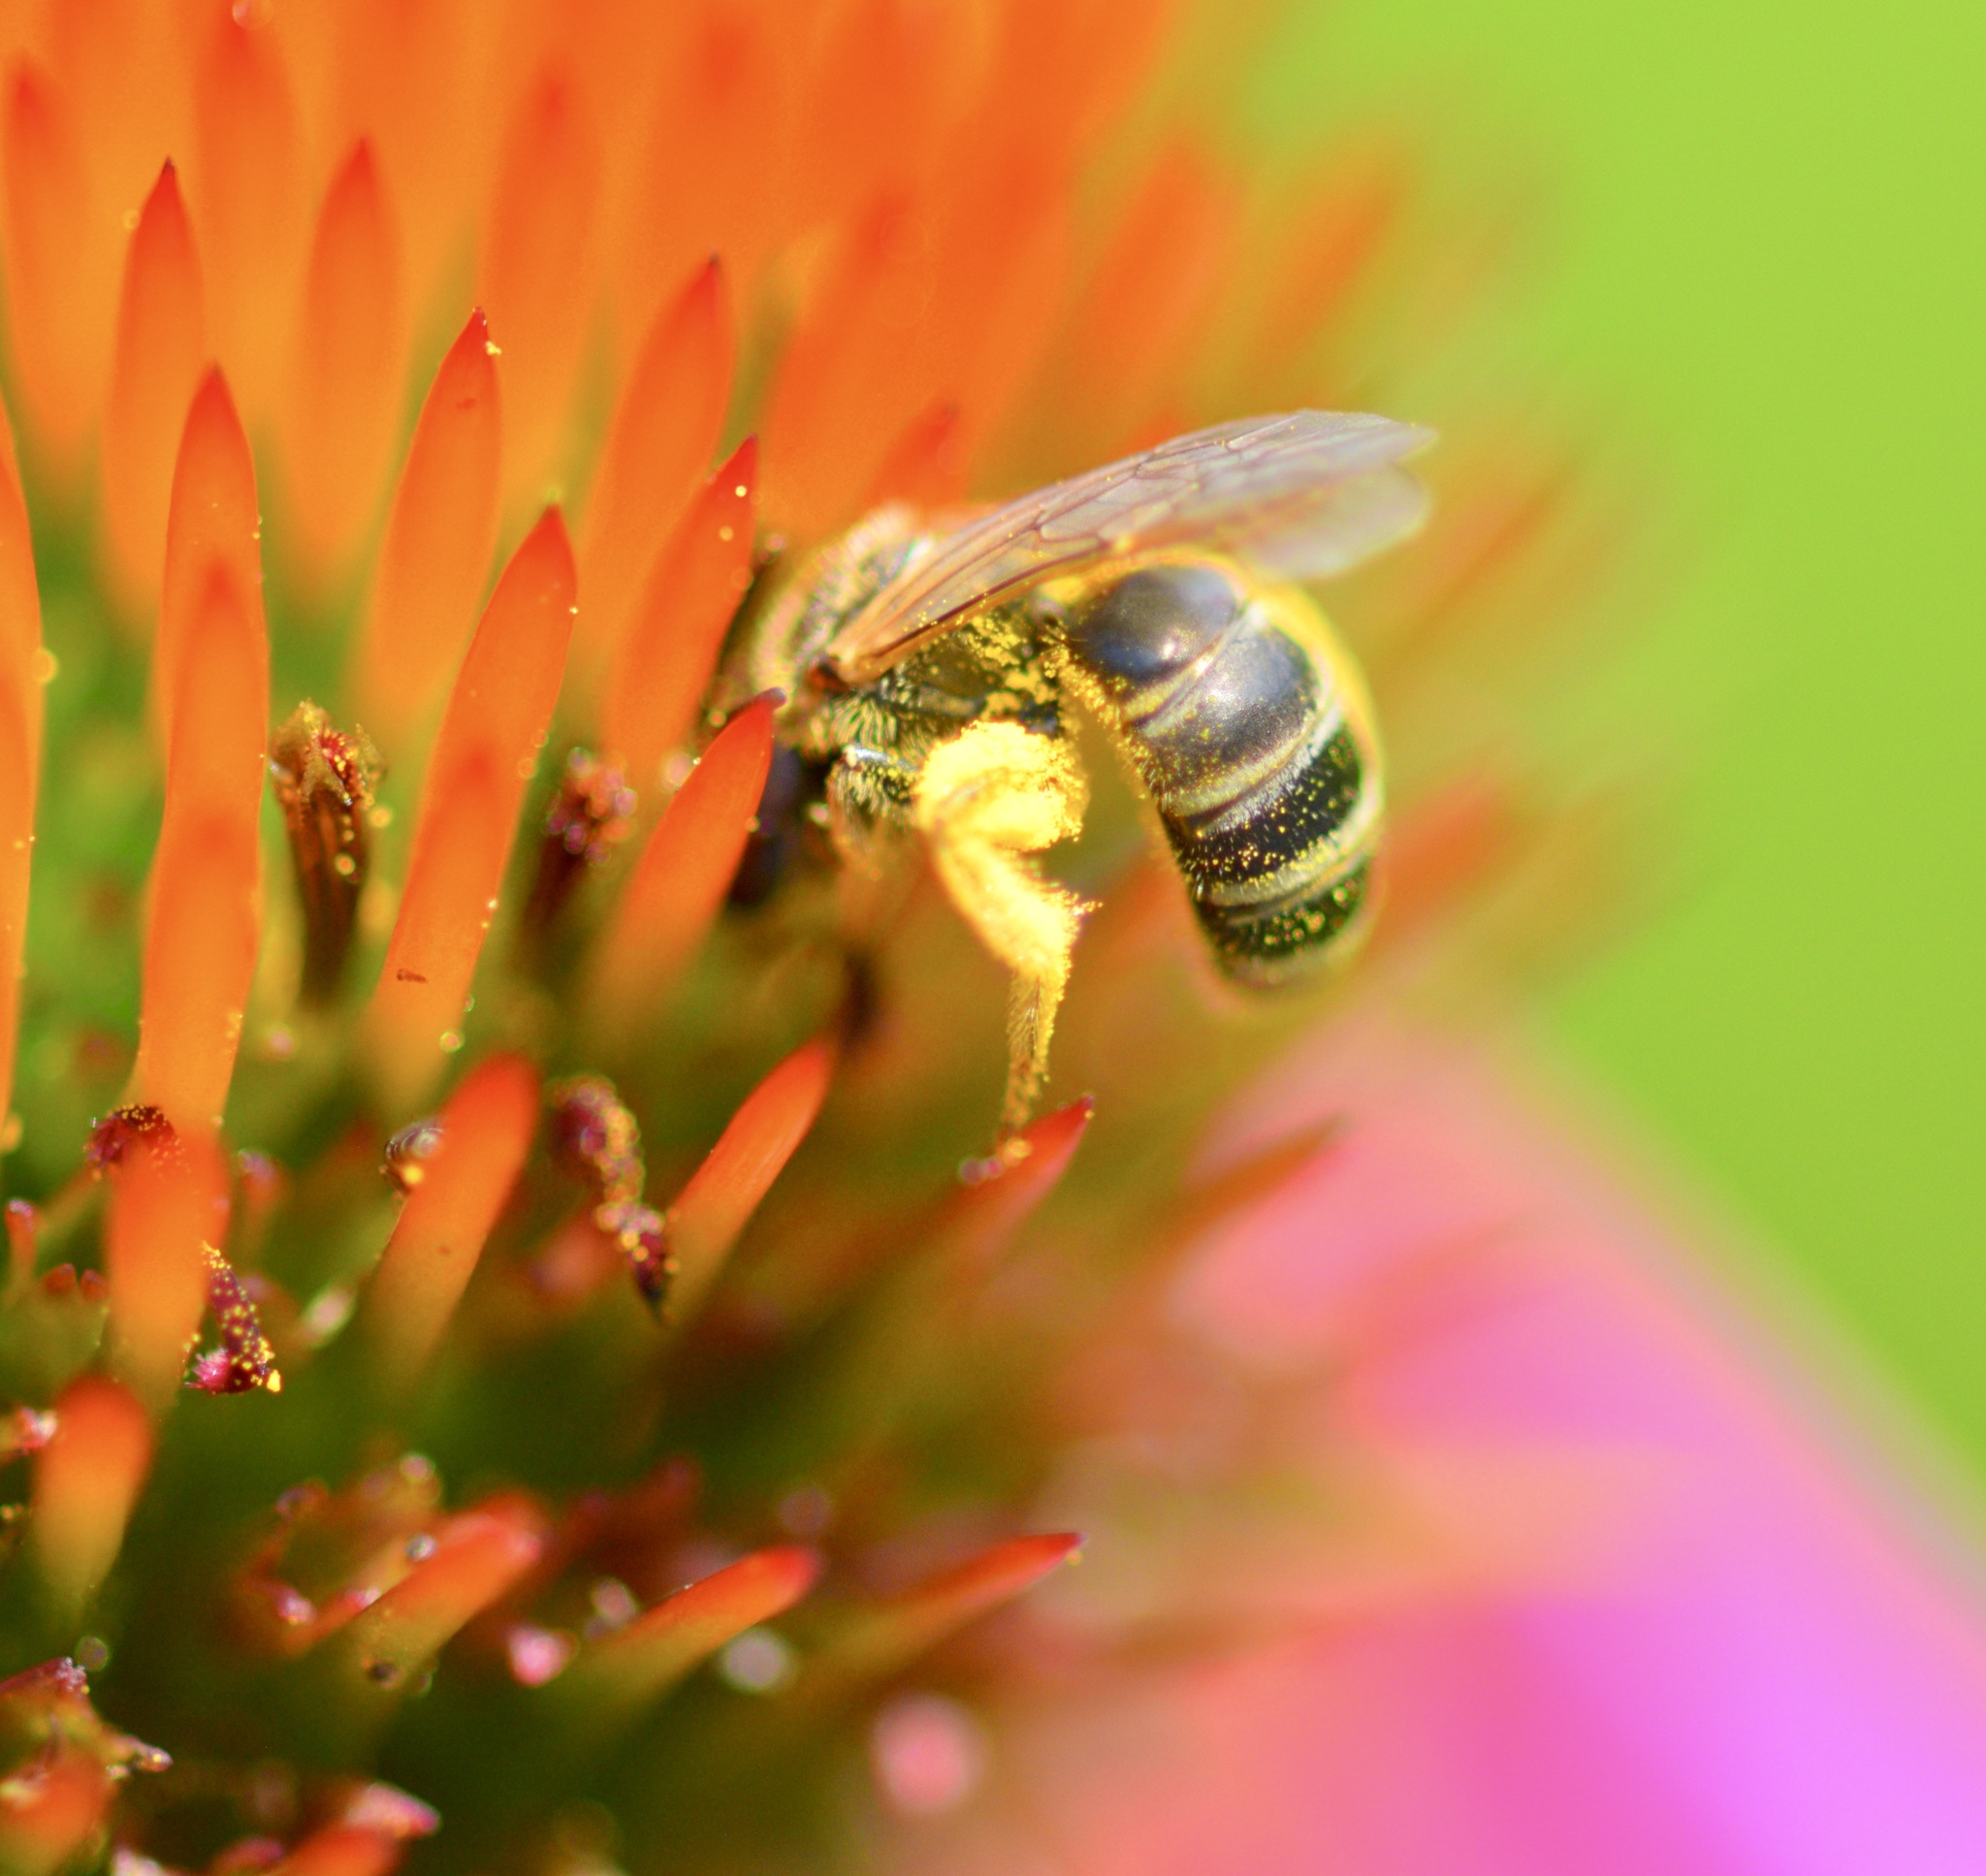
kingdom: Animalia
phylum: Arthropoda
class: Insecta
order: Hymenoptera
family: Halictidae
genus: Halictus
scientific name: Halictus ligatus
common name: Ligated furrow bee
